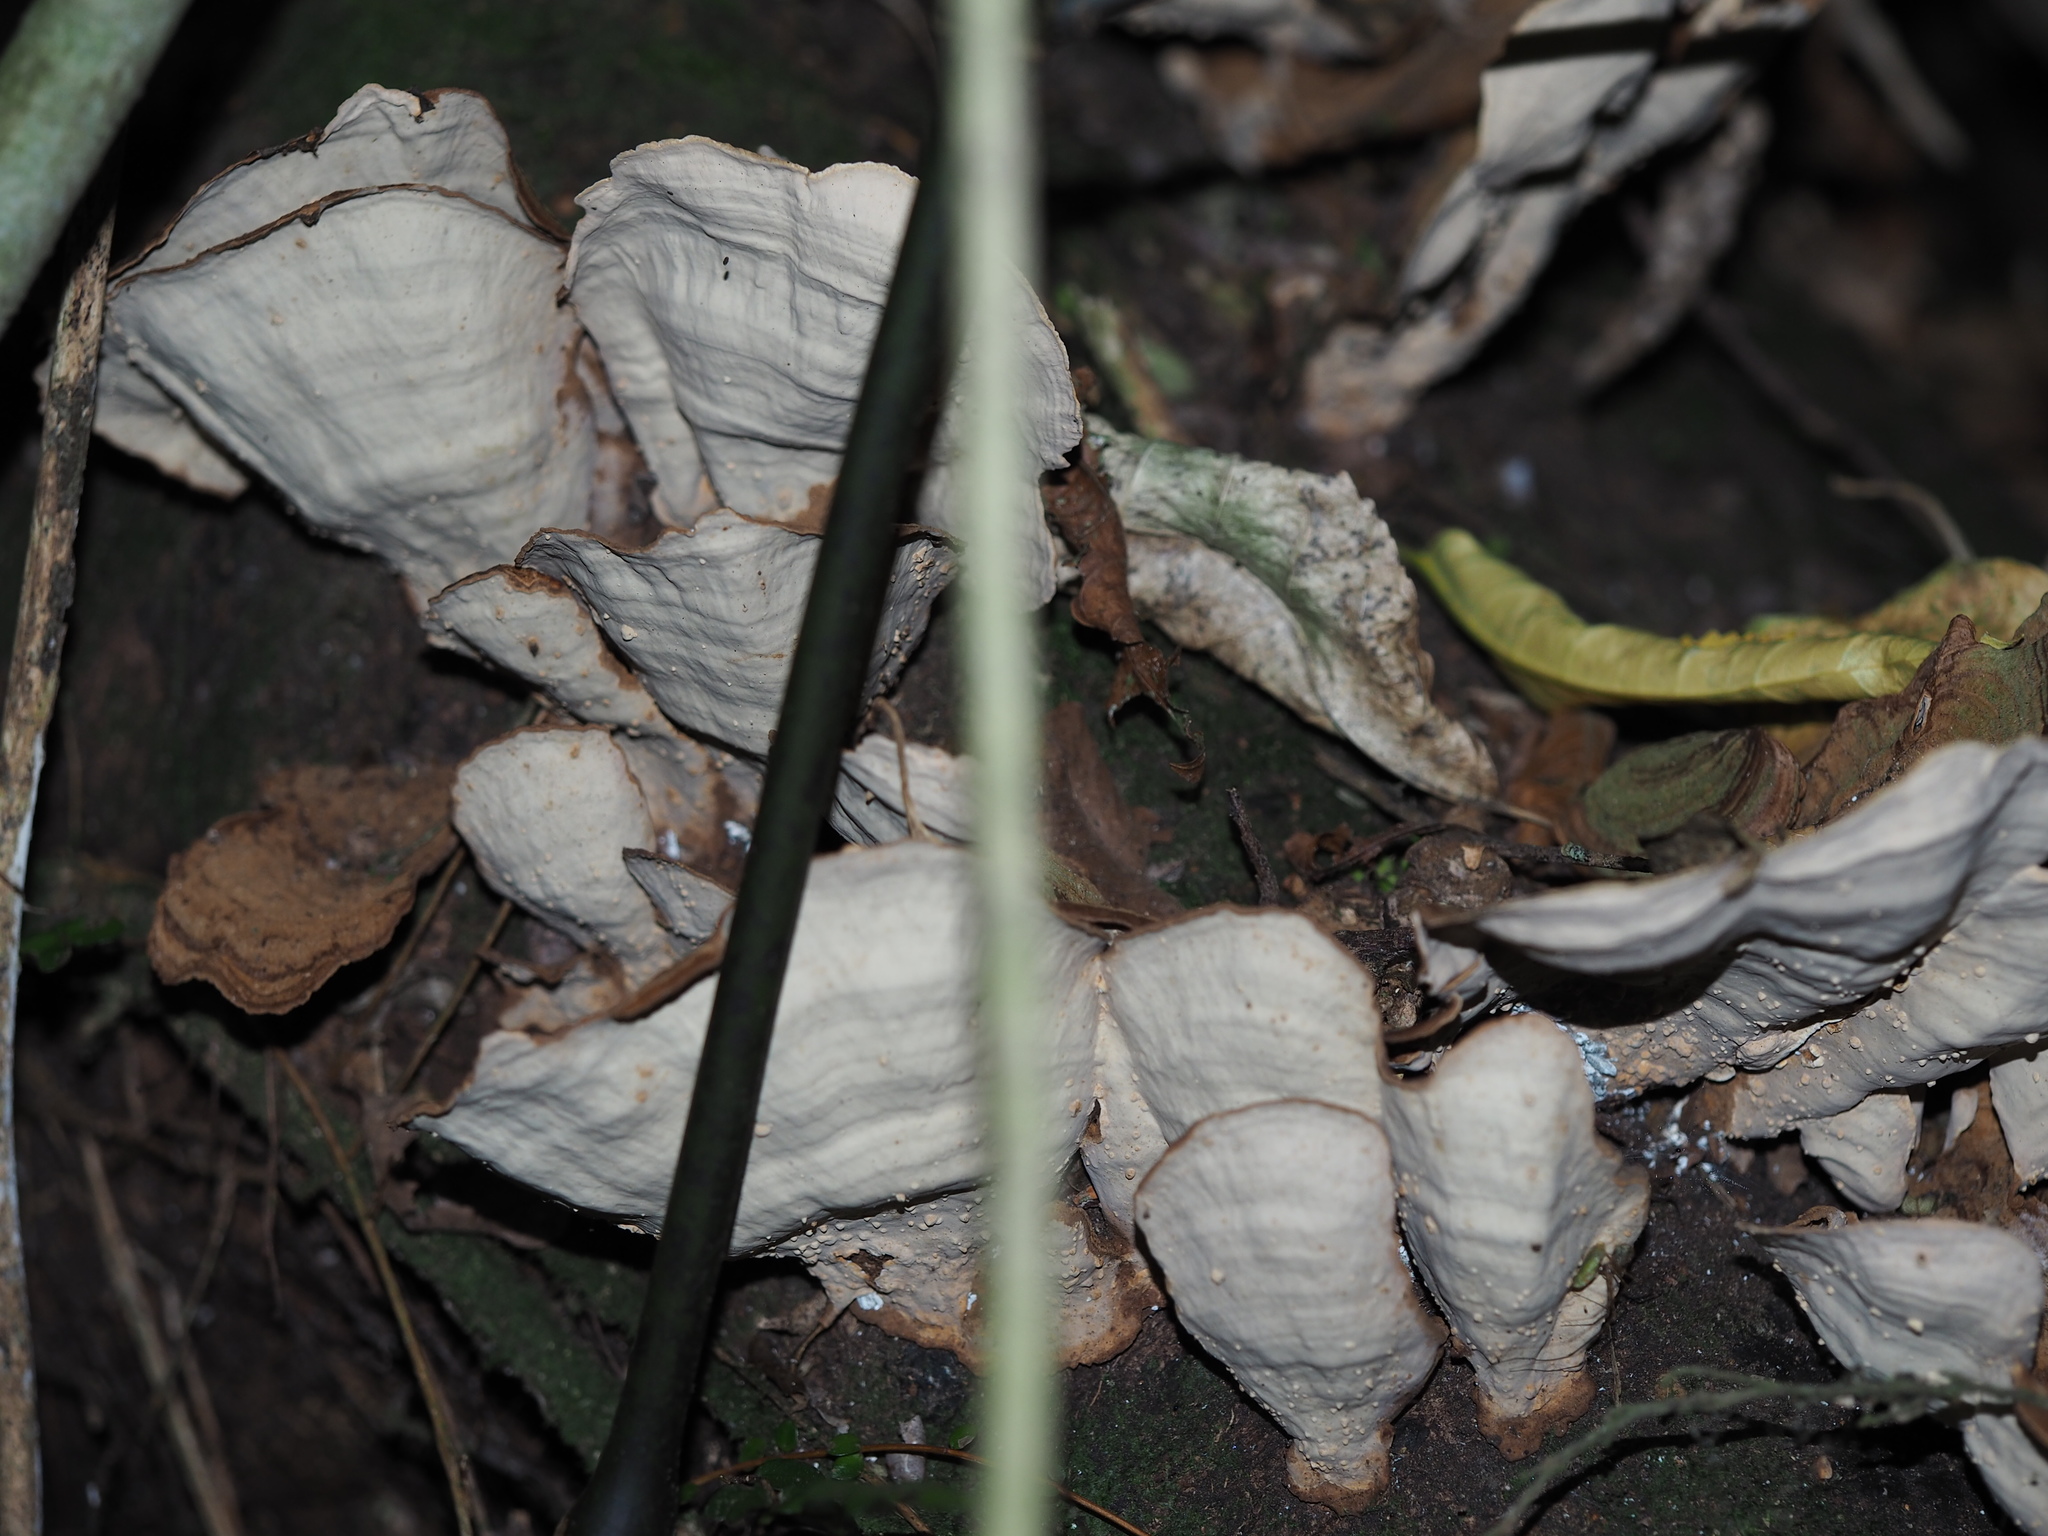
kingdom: Fungi
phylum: Basidiomycota
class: Agaricomycetes
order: Russulales
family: Stereaceae
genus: Stereum
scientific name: Stereum versicolor
